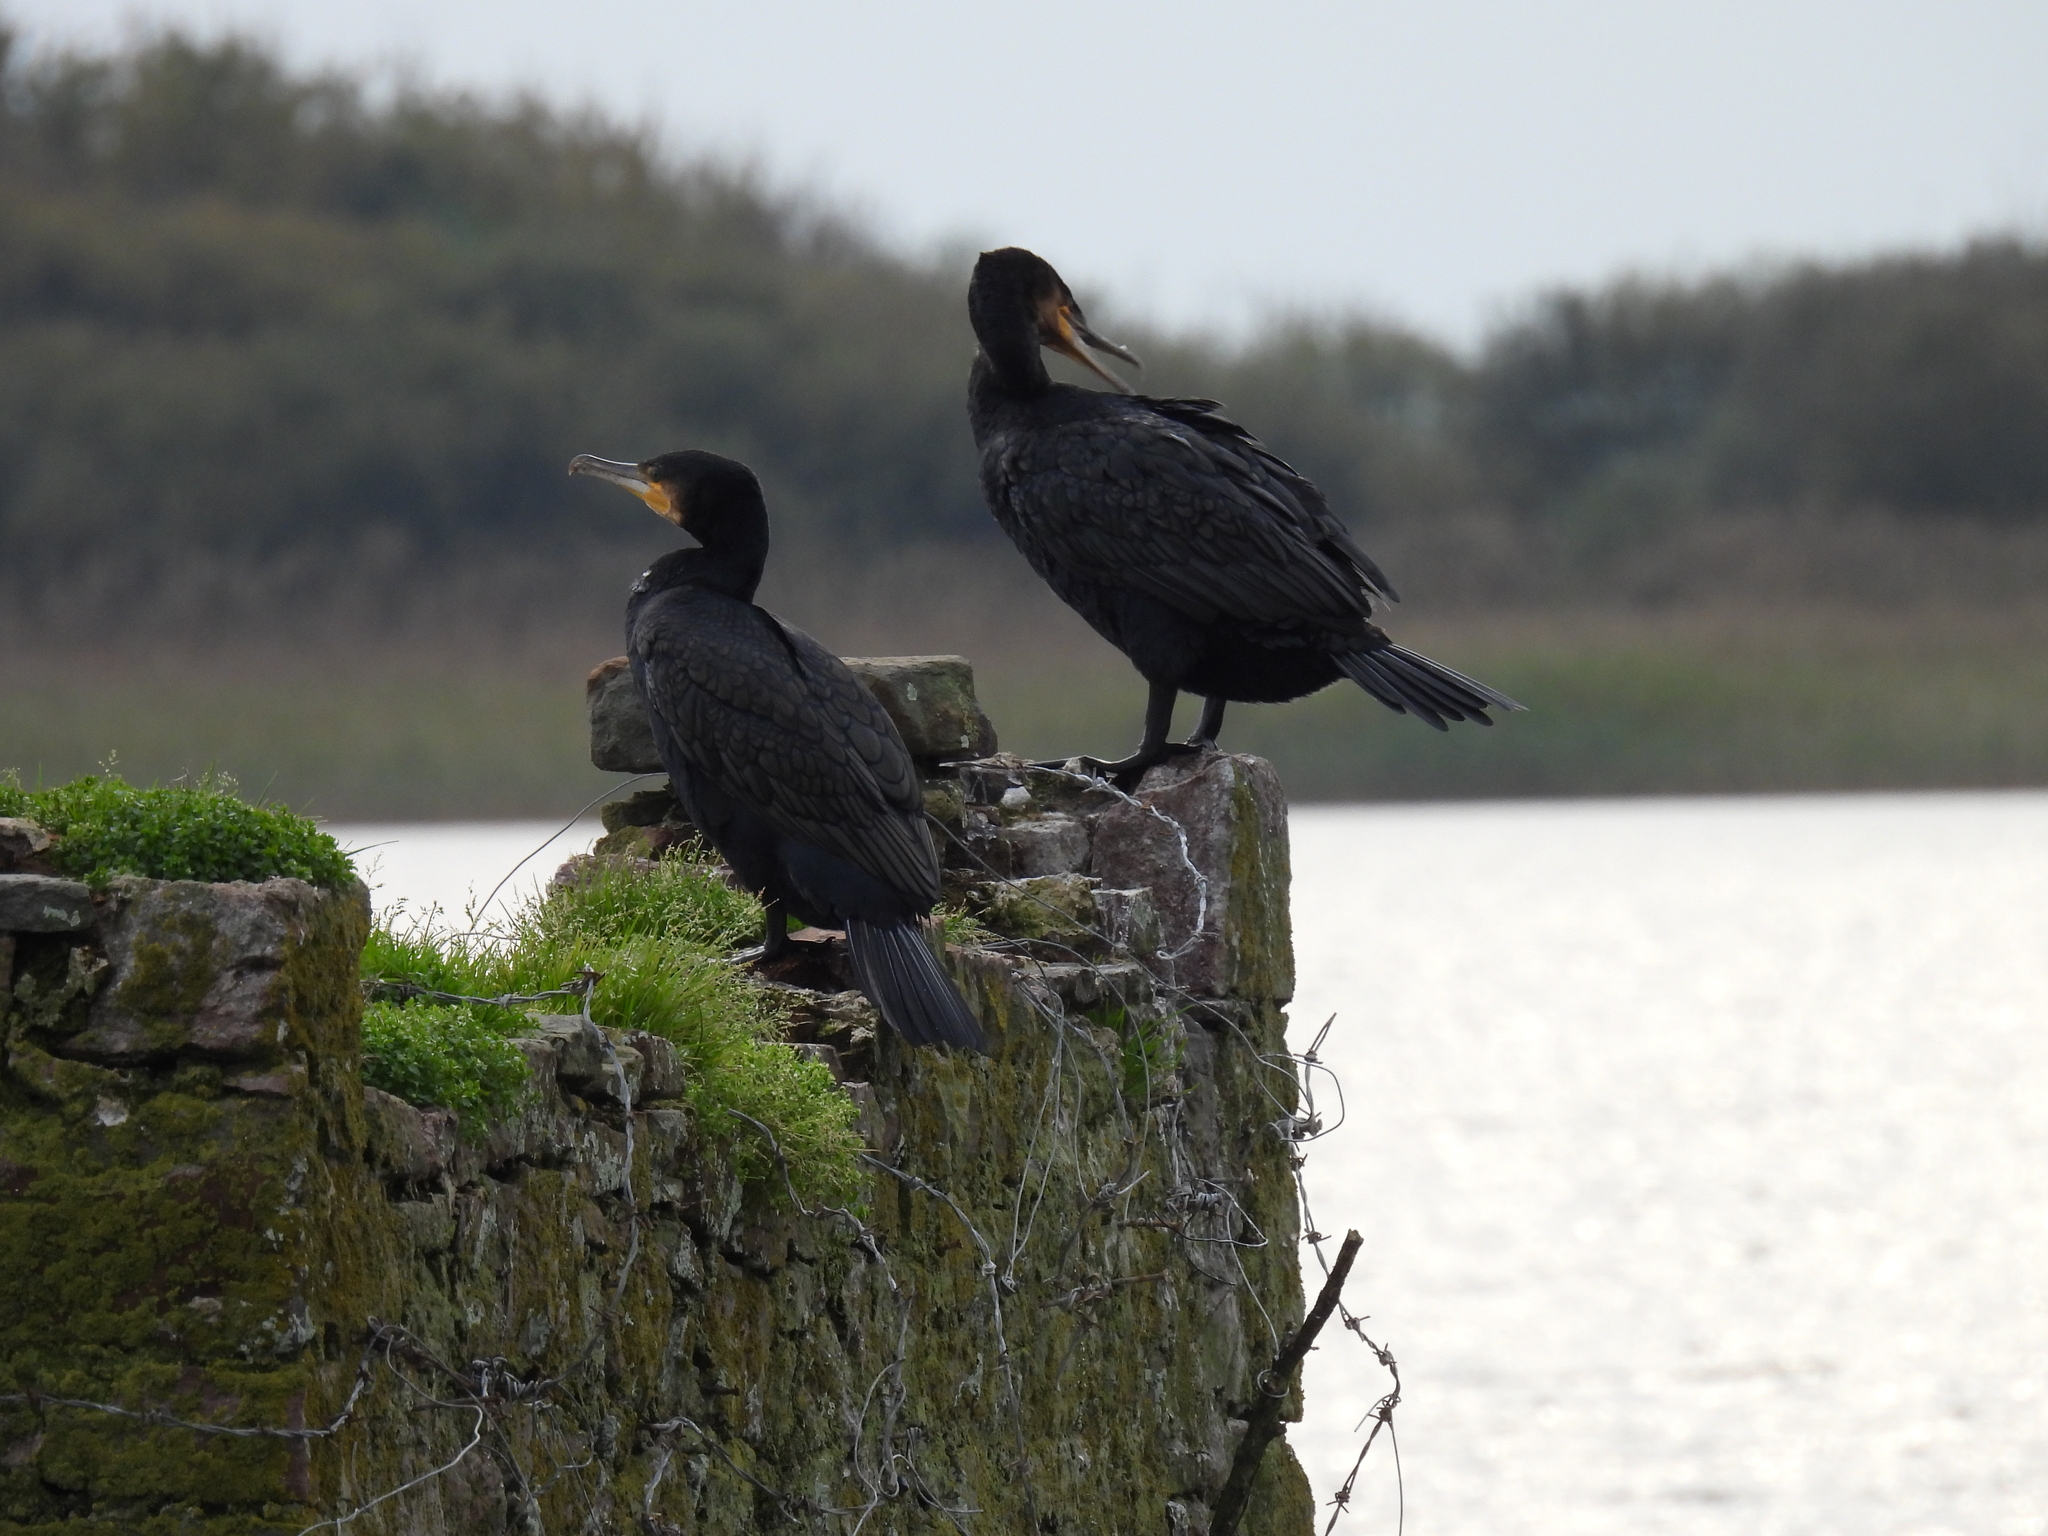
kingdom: Animalia
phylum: Chordata
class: Aves
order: Suliformes
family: Phalacrocoracidae
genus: Phalacrocorax
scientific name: Phalacrocorax carbo
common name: Great cormorant
